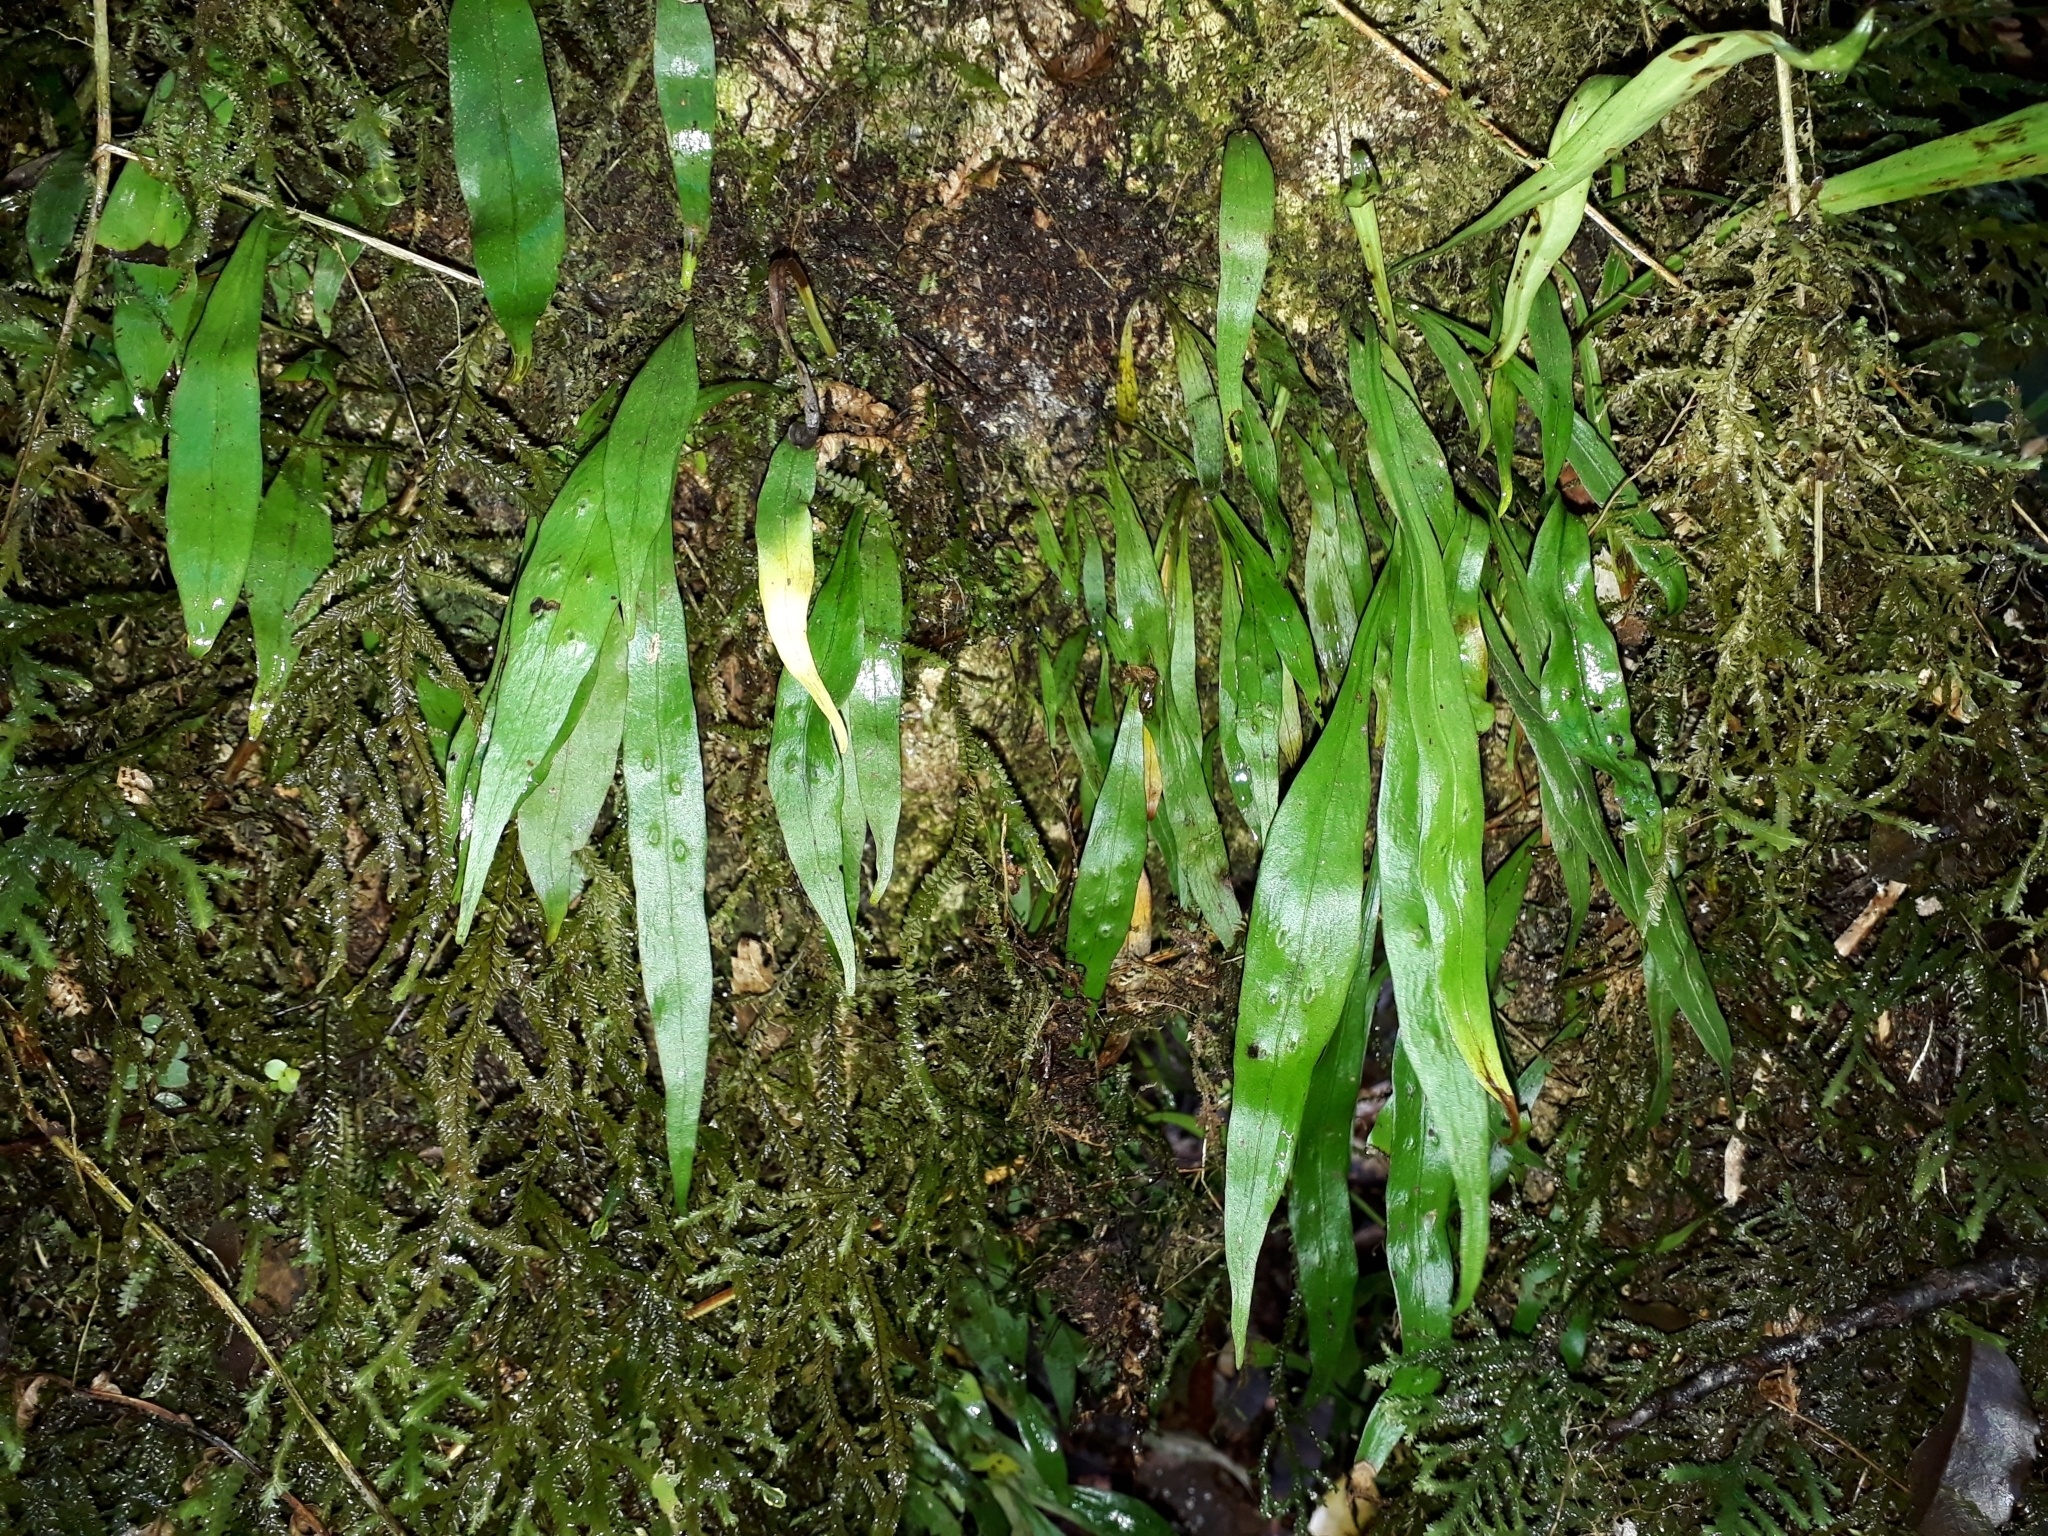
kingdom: Plantae
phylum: Tracheophyta
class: Polypodiopsida
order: Polypodiales
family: Polypodiaceae
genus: Loxogramme
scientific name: Loxogramme dictyopteris
